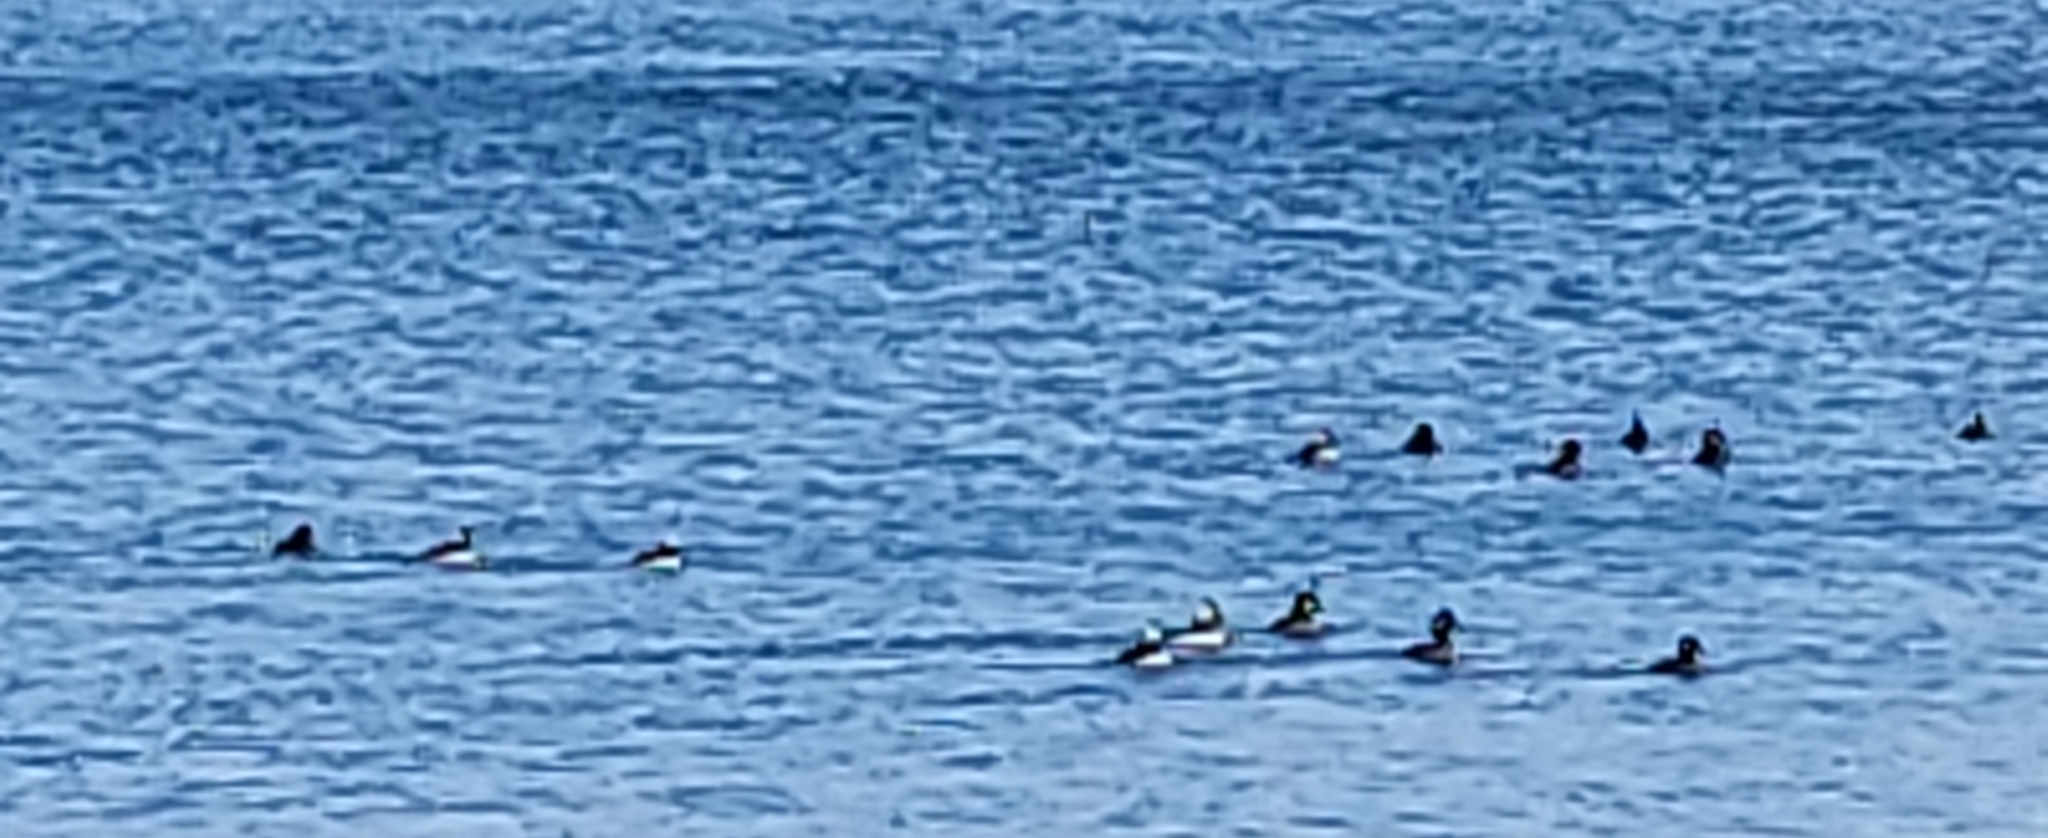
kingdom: Animalia
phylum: Chordata
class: Aves
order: Anseriformes
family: Anatidae
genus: Bucephala
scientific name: Bucephala albeola
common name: Bufflehead
